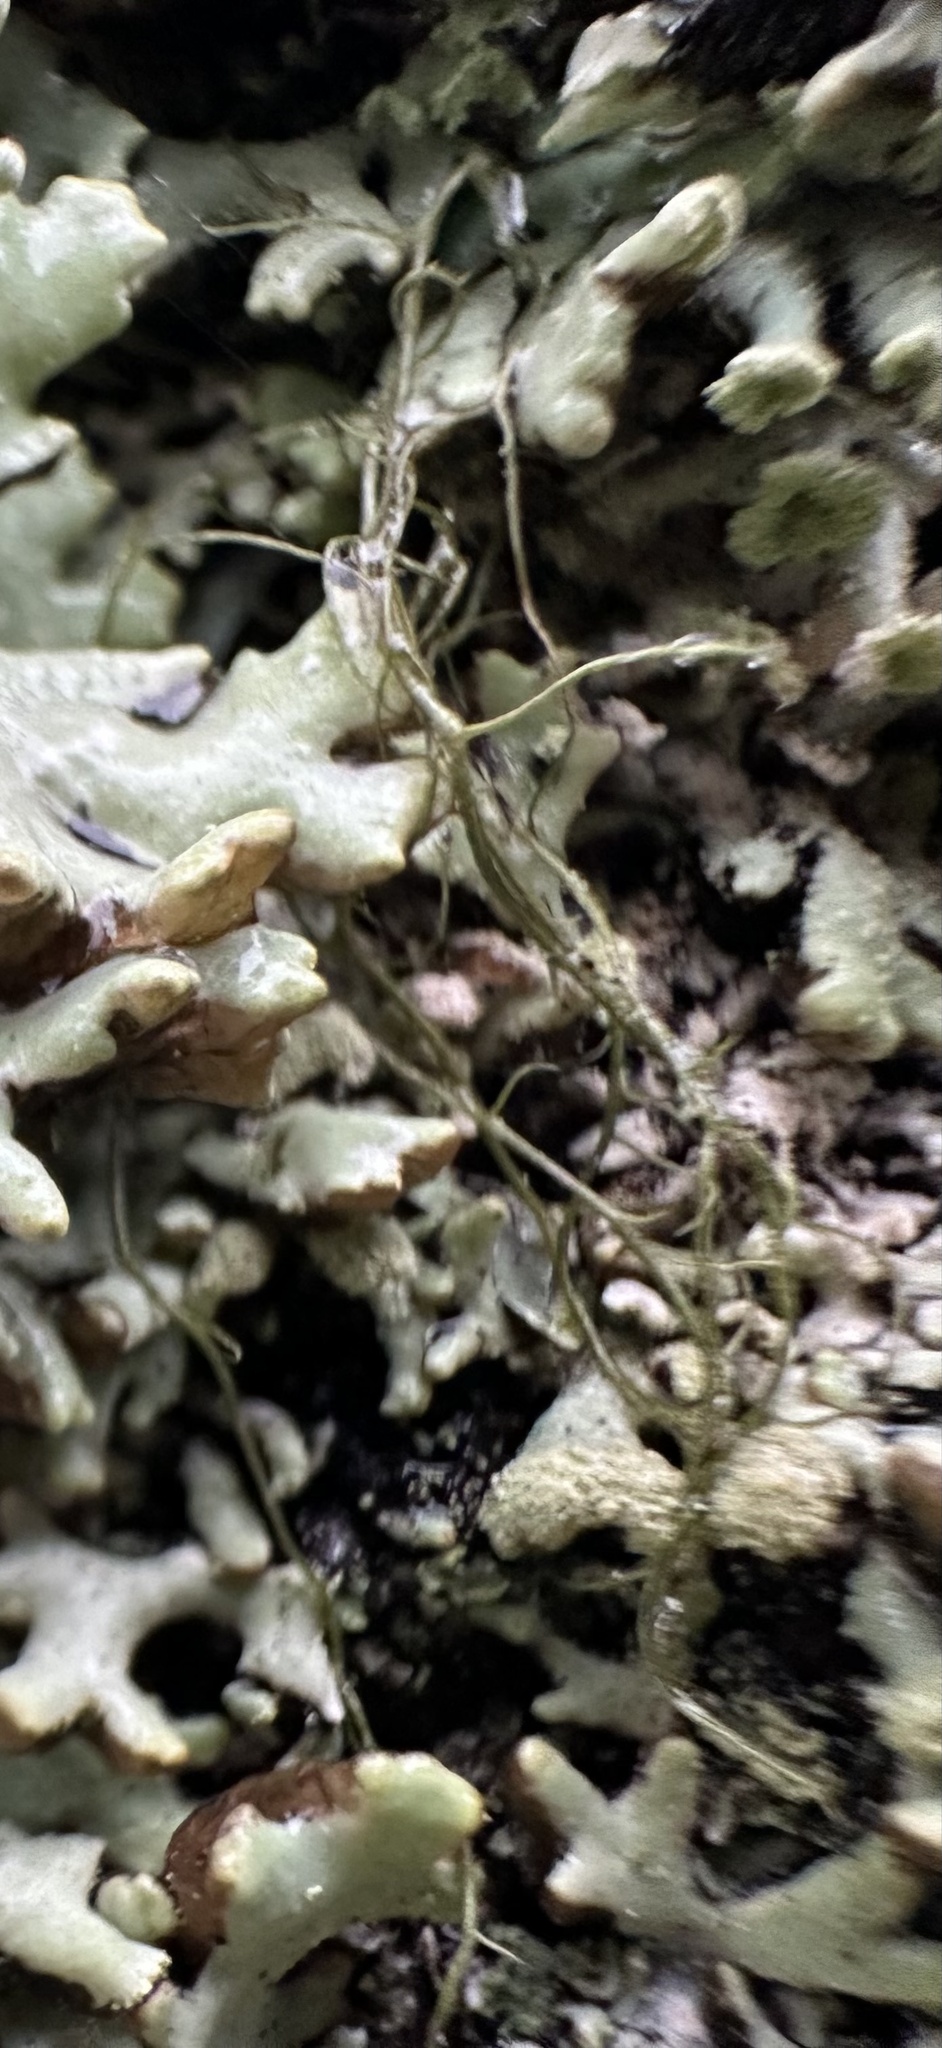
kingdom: Fungi
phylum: Ascomycota
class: Lecanoromycetes
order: Lecanorales
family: Parmeliaceae
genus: Bryoria
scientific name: Bryoria fuscescens
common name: Pale-footed horsehair lichen
